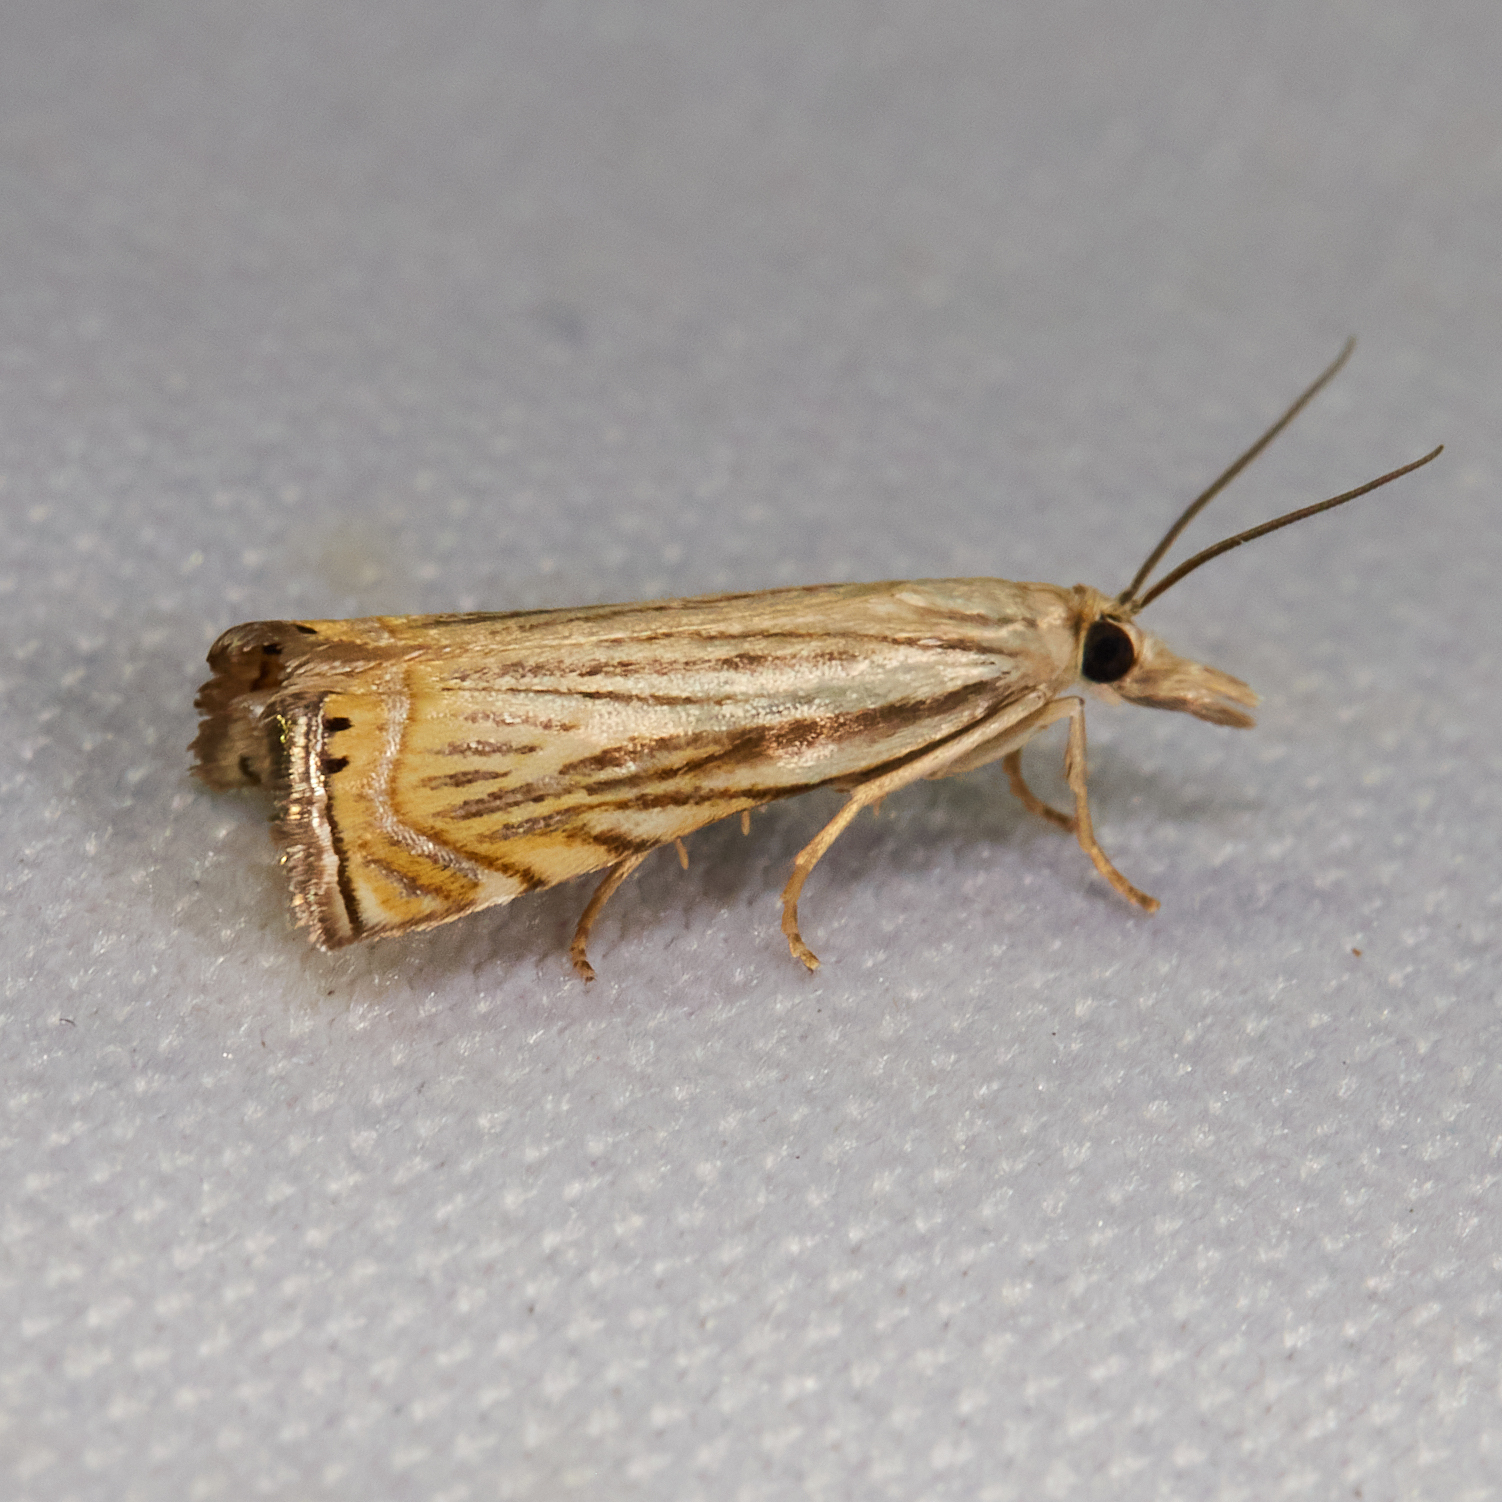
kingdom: Animalia
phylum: Arthropoda
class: Insecta
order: Lepidoptera
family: Crambidae
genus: Chrysoteuchia
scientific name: Chrysoteuchia topiarius
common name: Topiary grass-veneer
